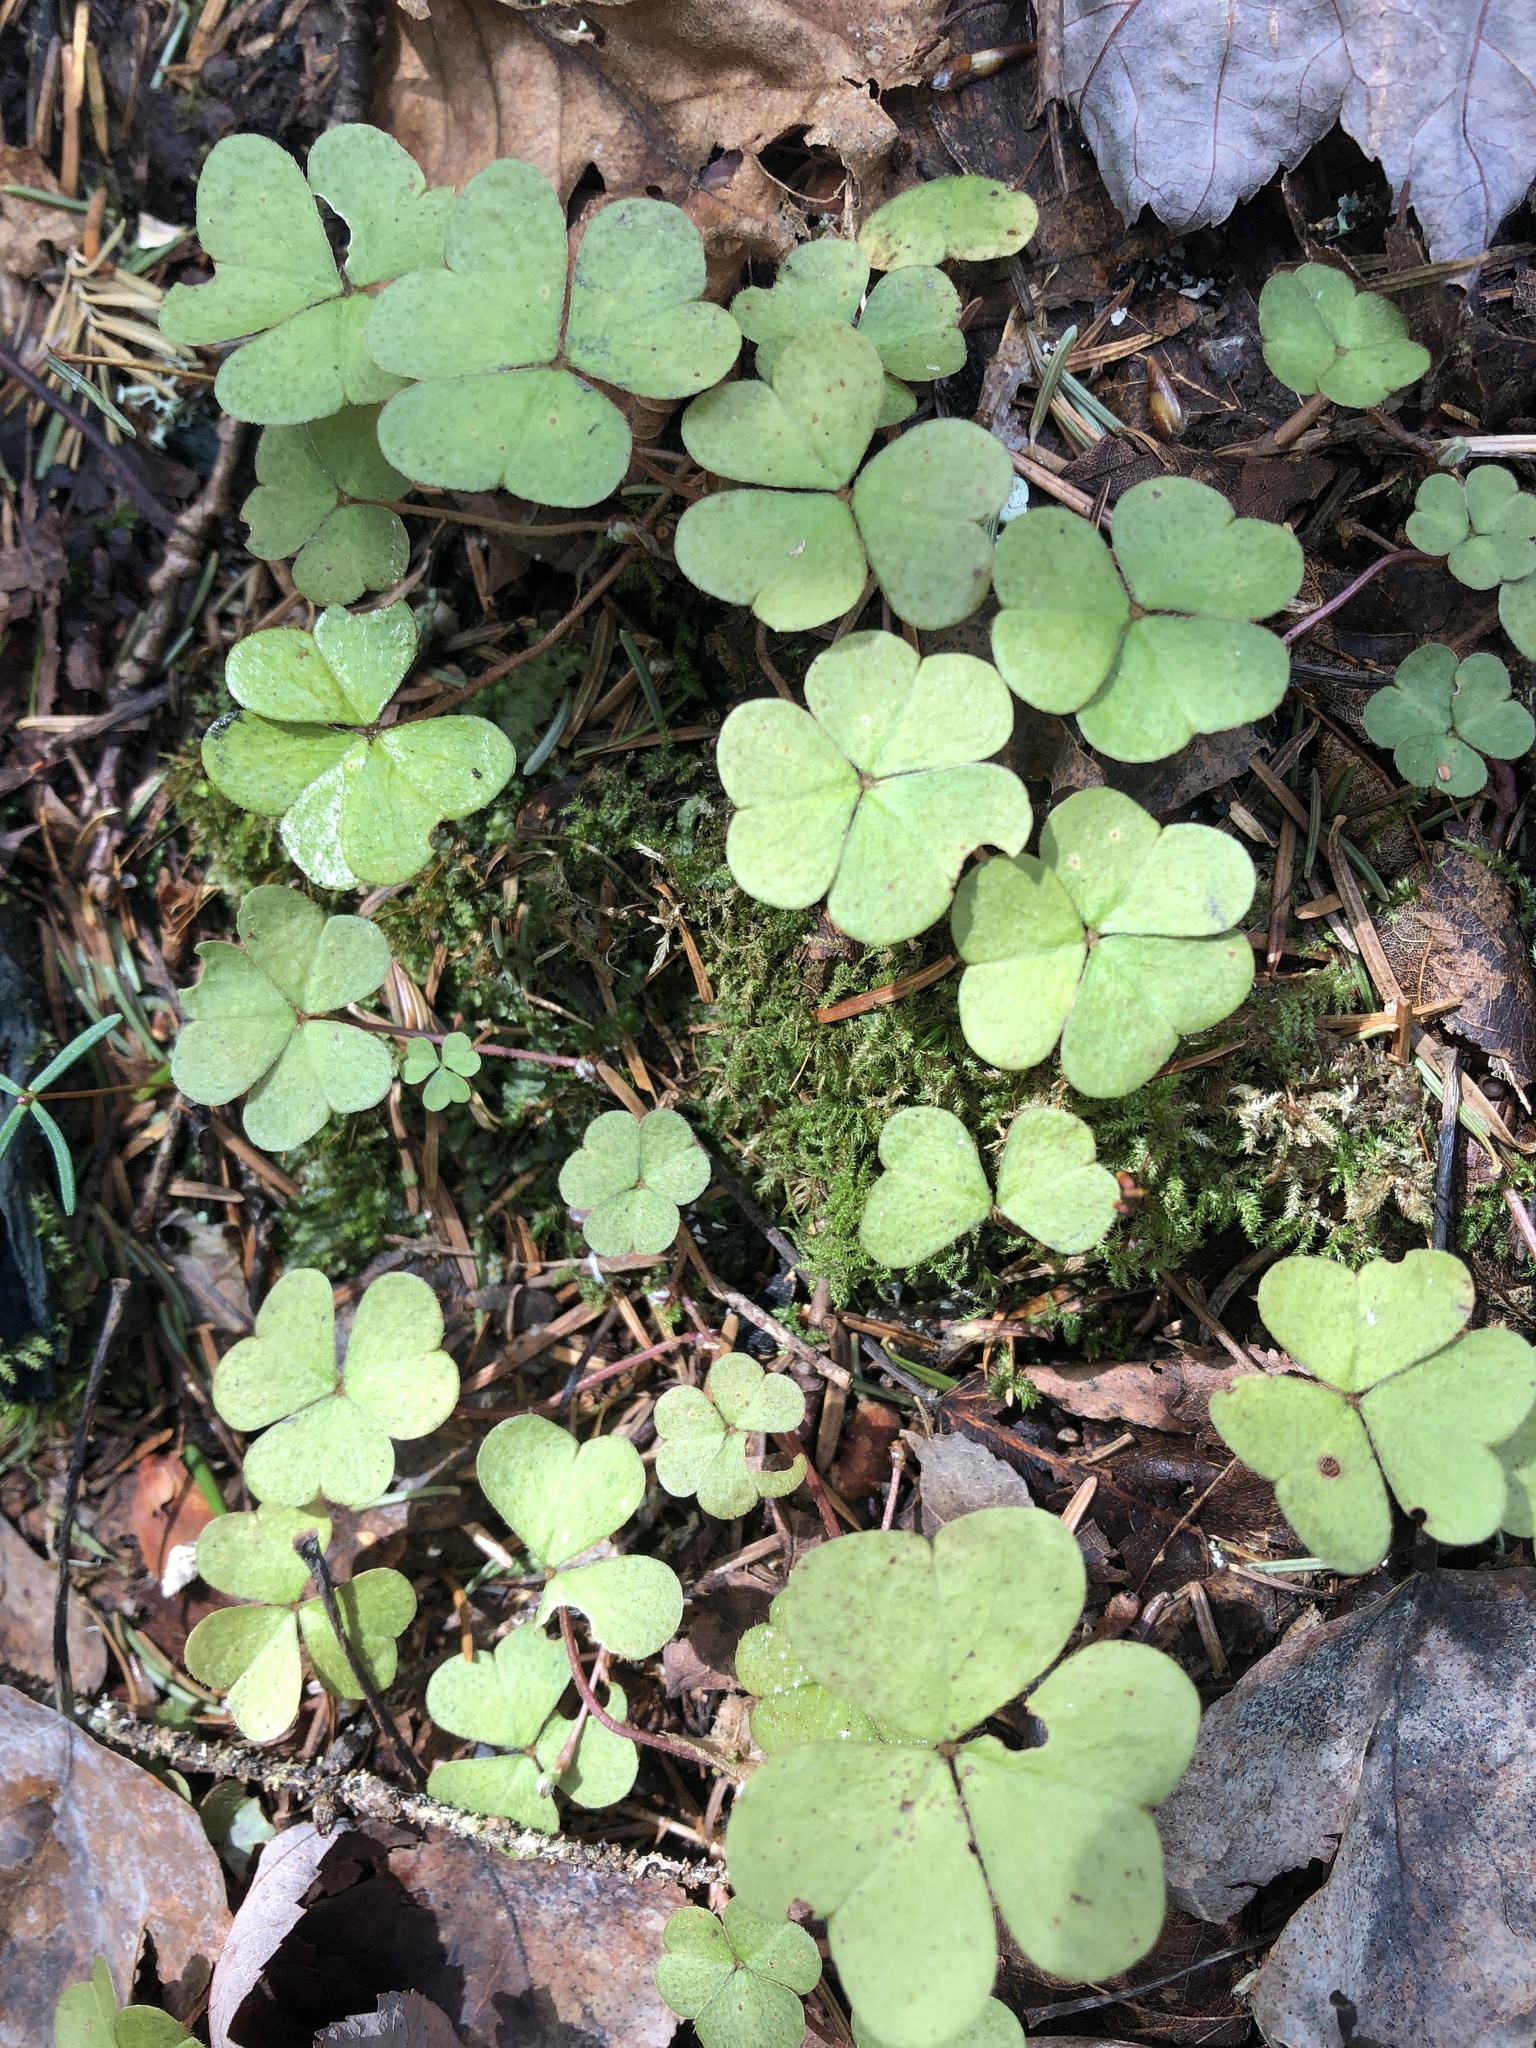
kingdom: Plantae
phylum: Tracheophyta
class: Magnoliopsida
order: Oxalidales
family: Oxalidaceae
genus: Oxalis
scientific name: Oxalis montana
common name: American wood-sorrel
